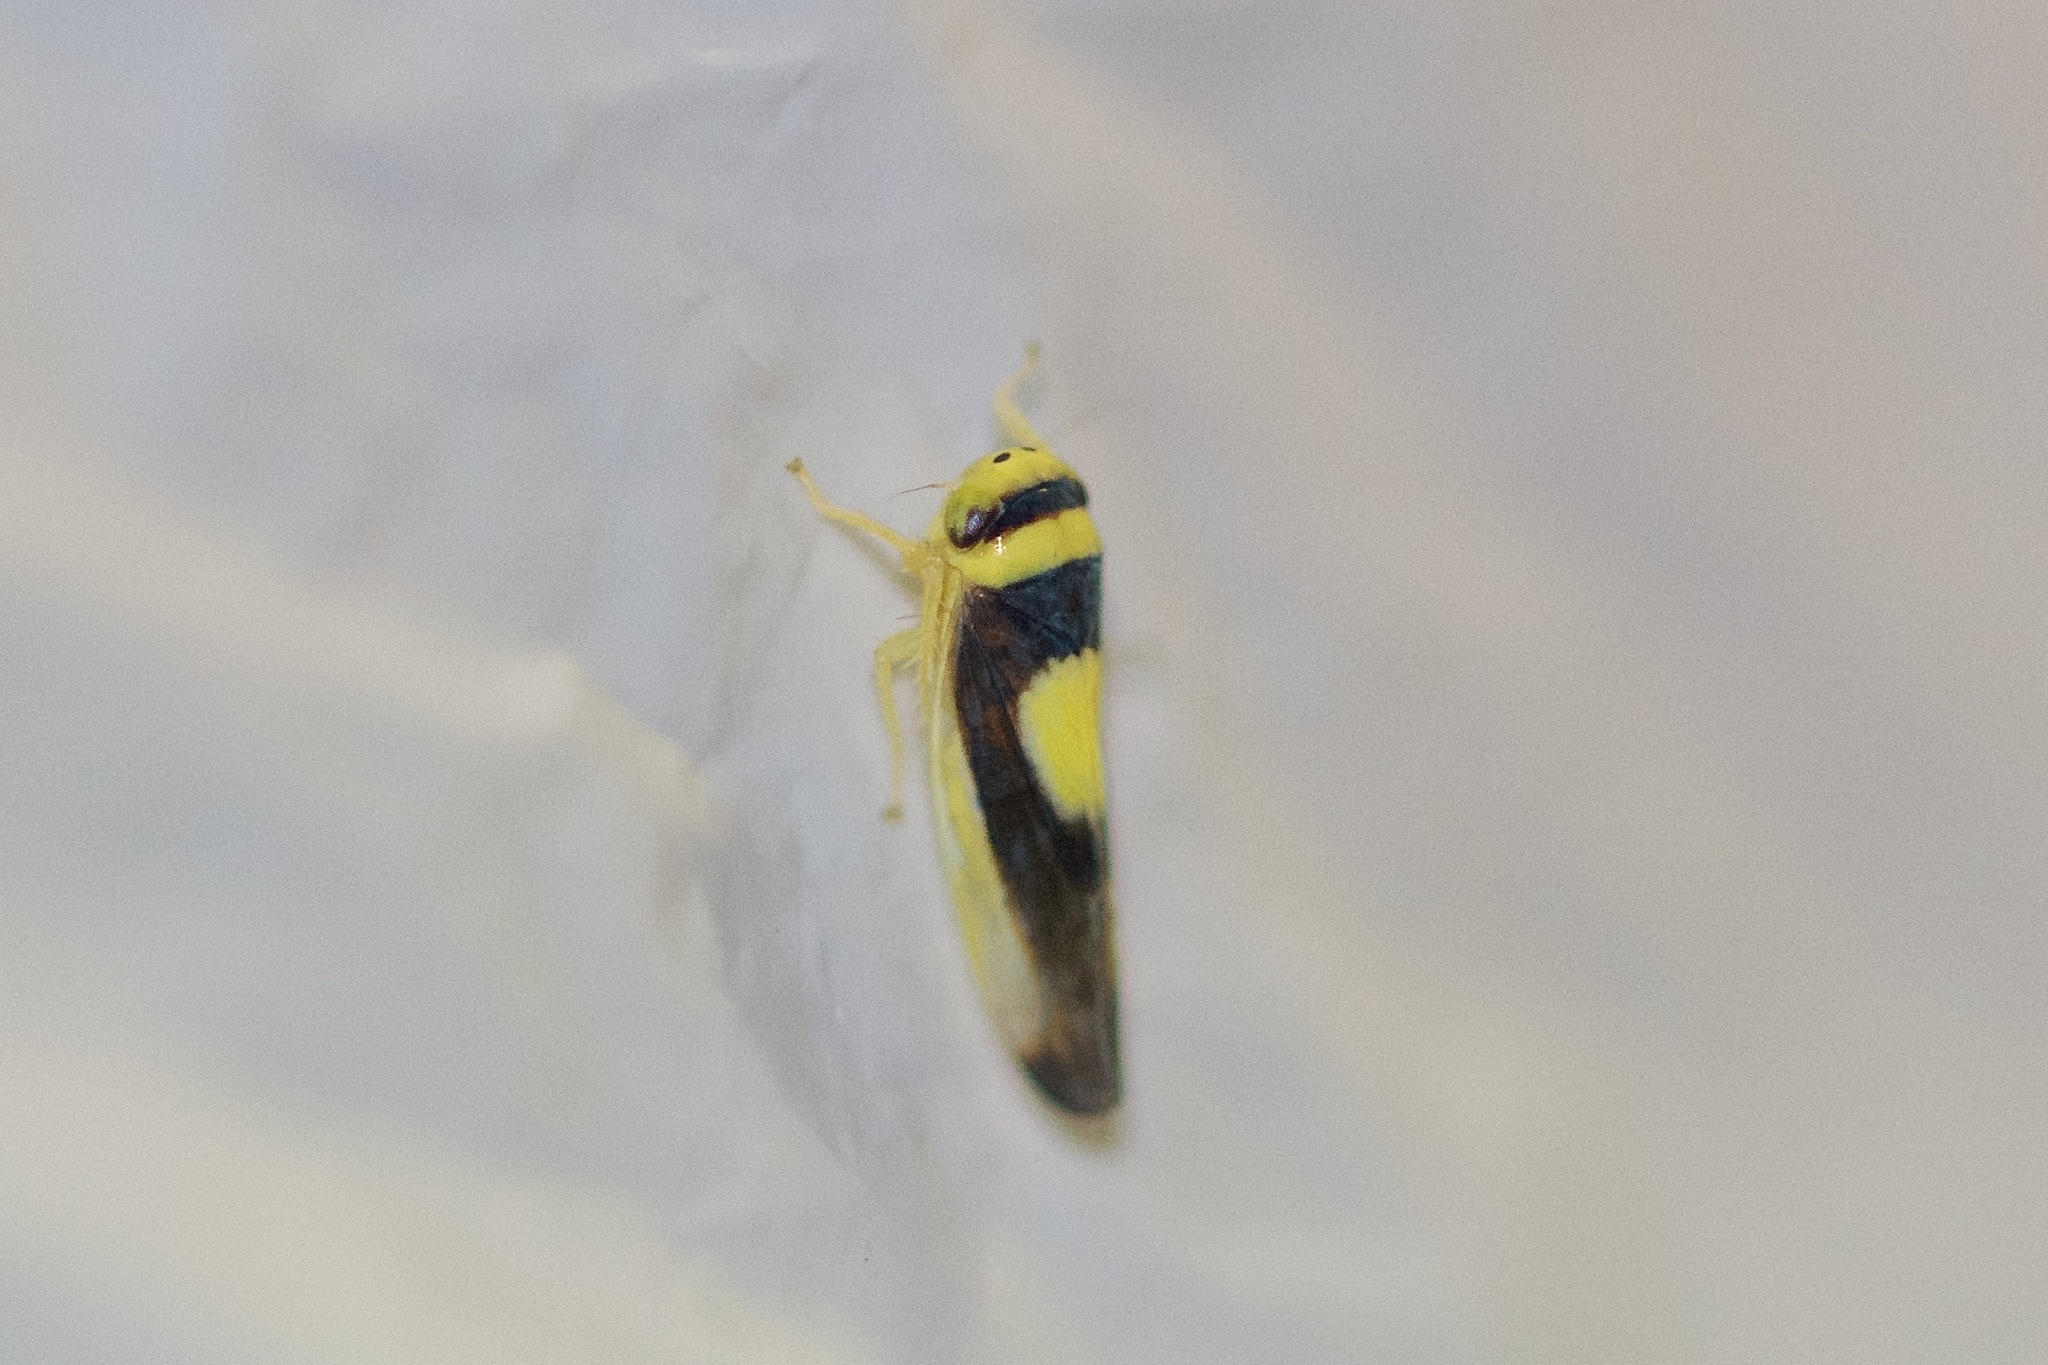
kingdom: Animalia
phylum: Arthropoda
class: Insecta
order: Hemiptera
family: Cicadellidae
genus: Colladonus
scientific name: Colladonus clitellarius
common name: The saddleback leafhopper
